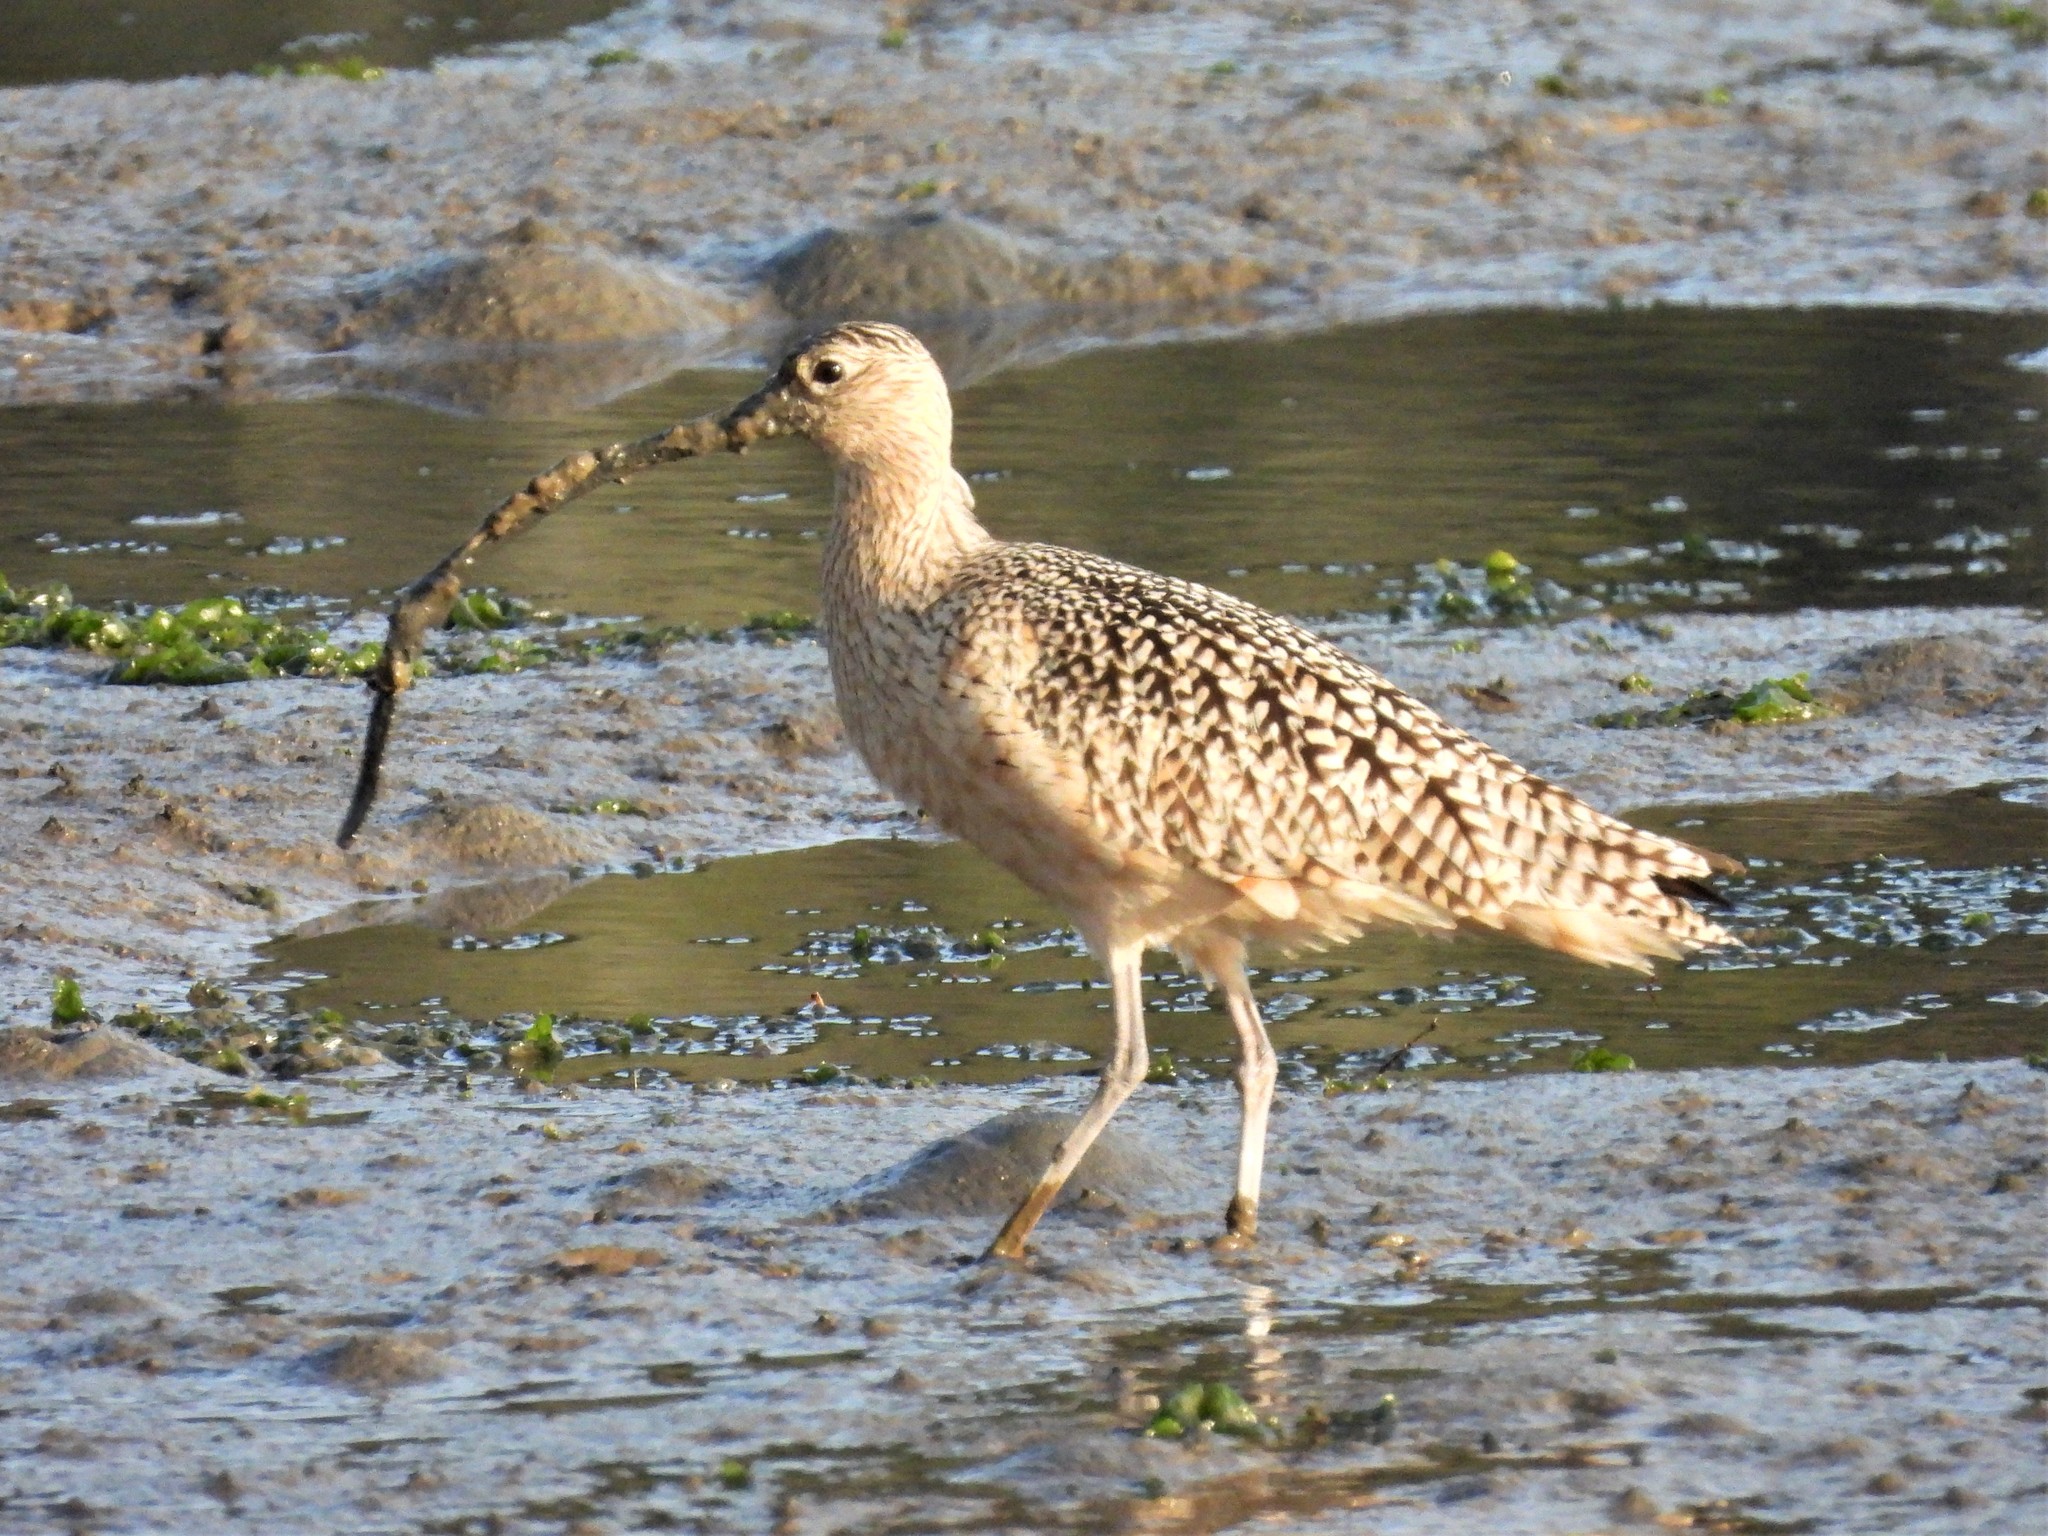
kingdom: Animalia
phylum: Chordata
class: Aves
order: Charadriiformes
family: Scolopacidae
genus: Numenius
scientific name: Numenius americanus
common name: Long-billed curlew
